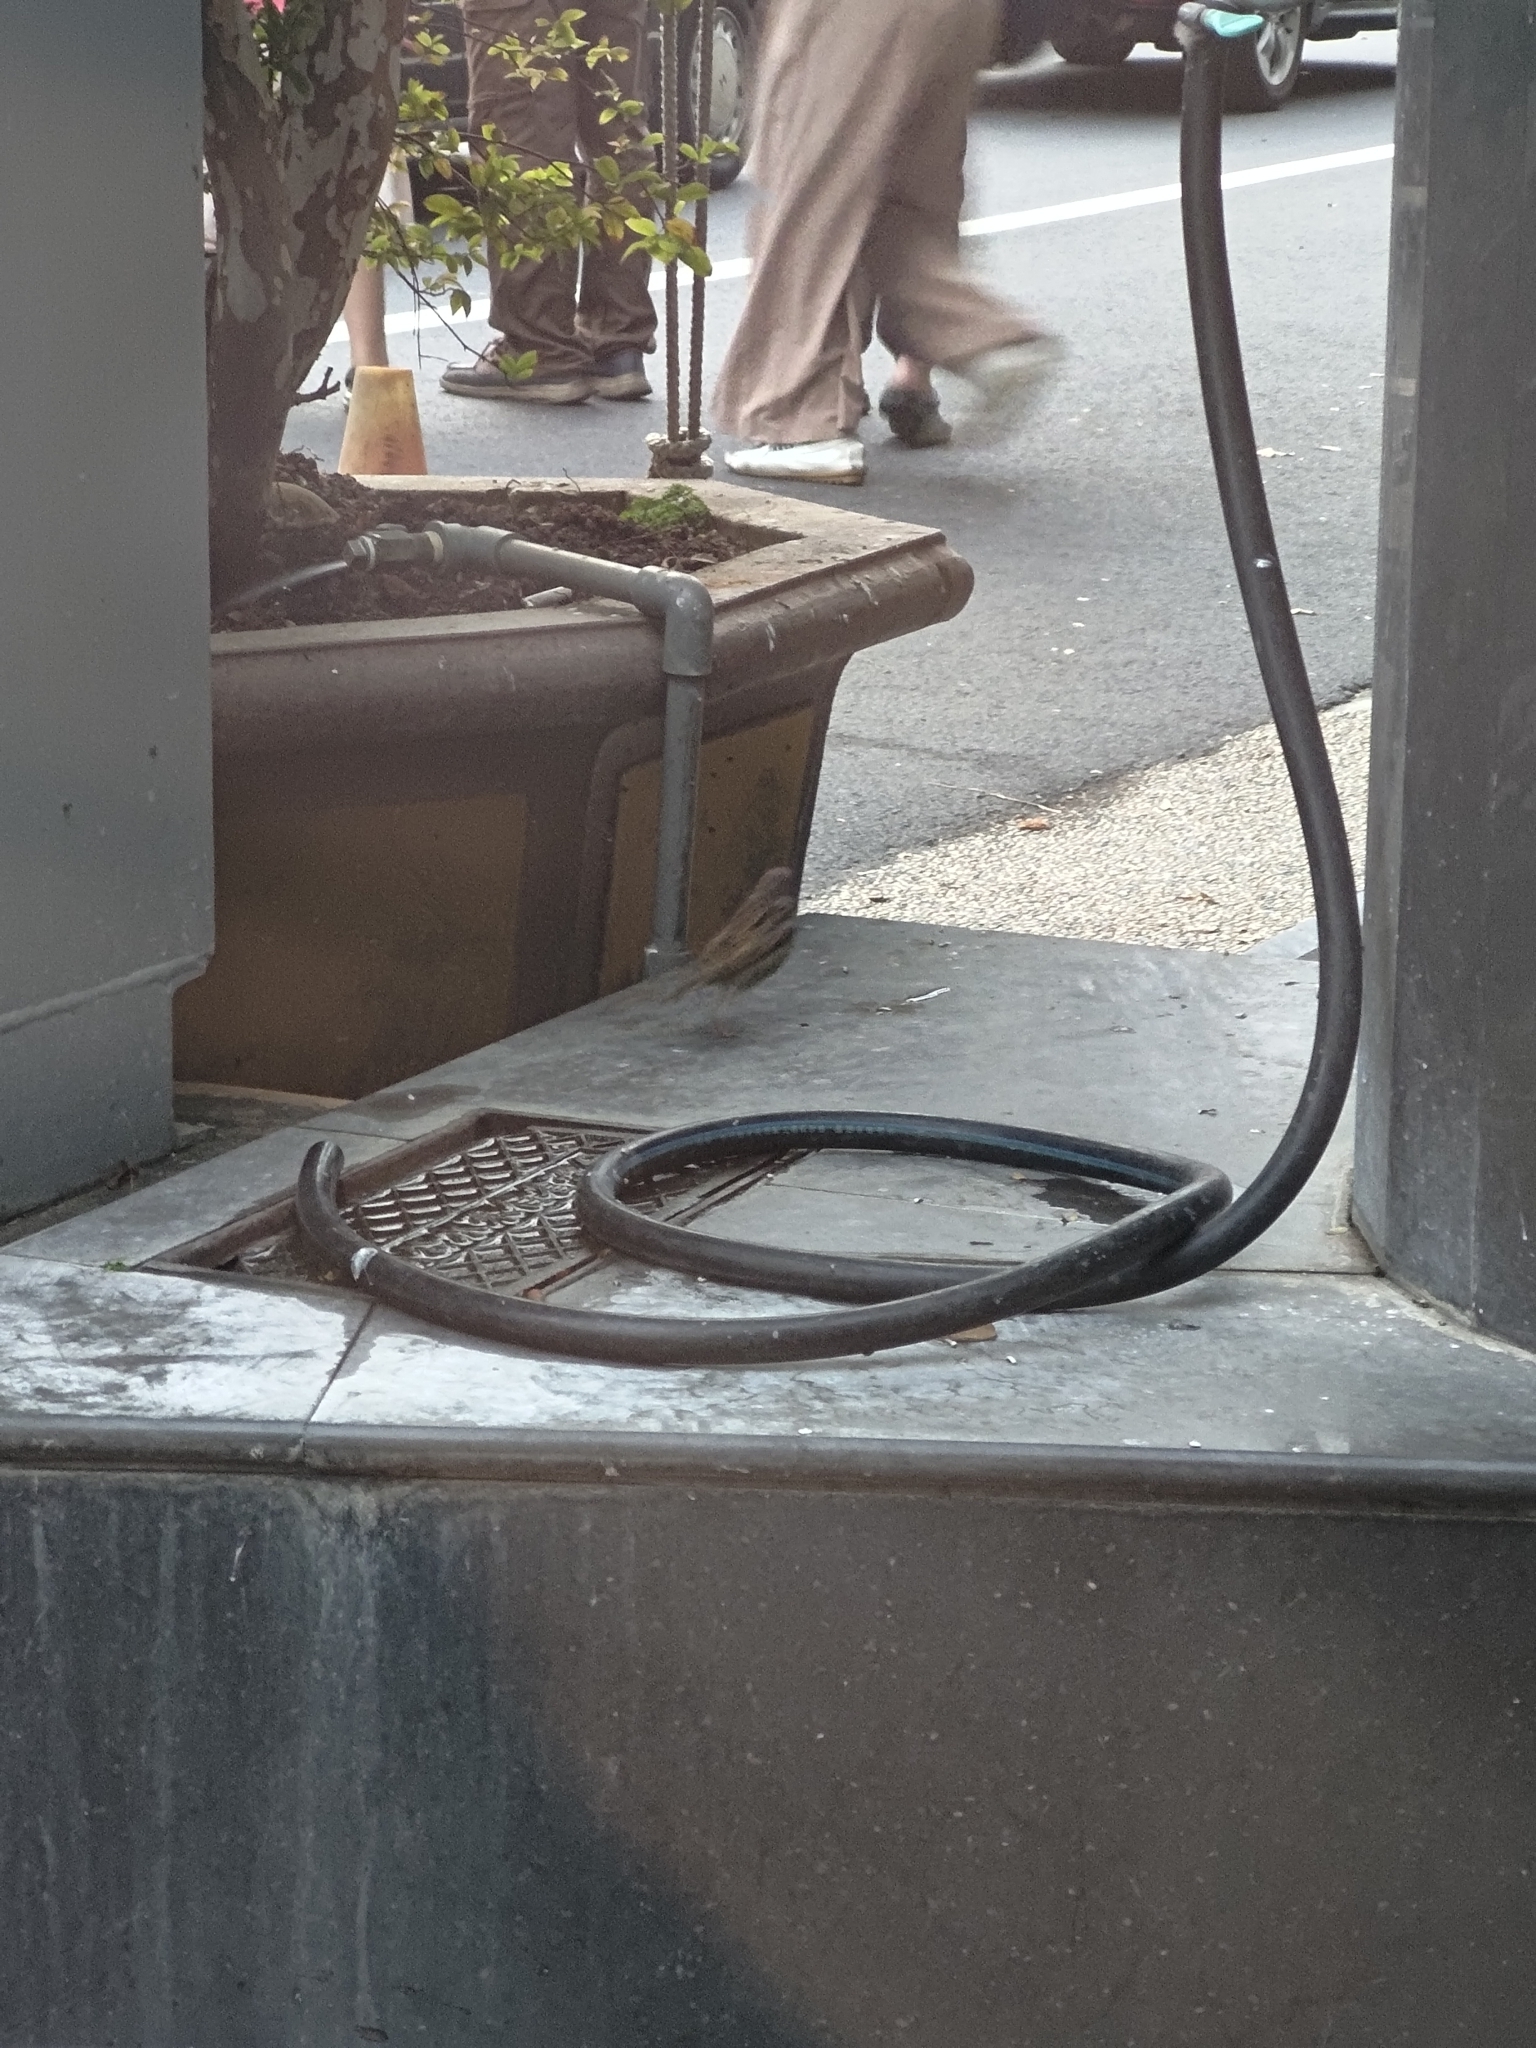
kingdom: Animalia
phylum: Chordata
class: Aves
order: Passeriformes
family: Passeridae
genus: Passer
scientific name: Passer montanus
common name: Eurasian tree sparrow
